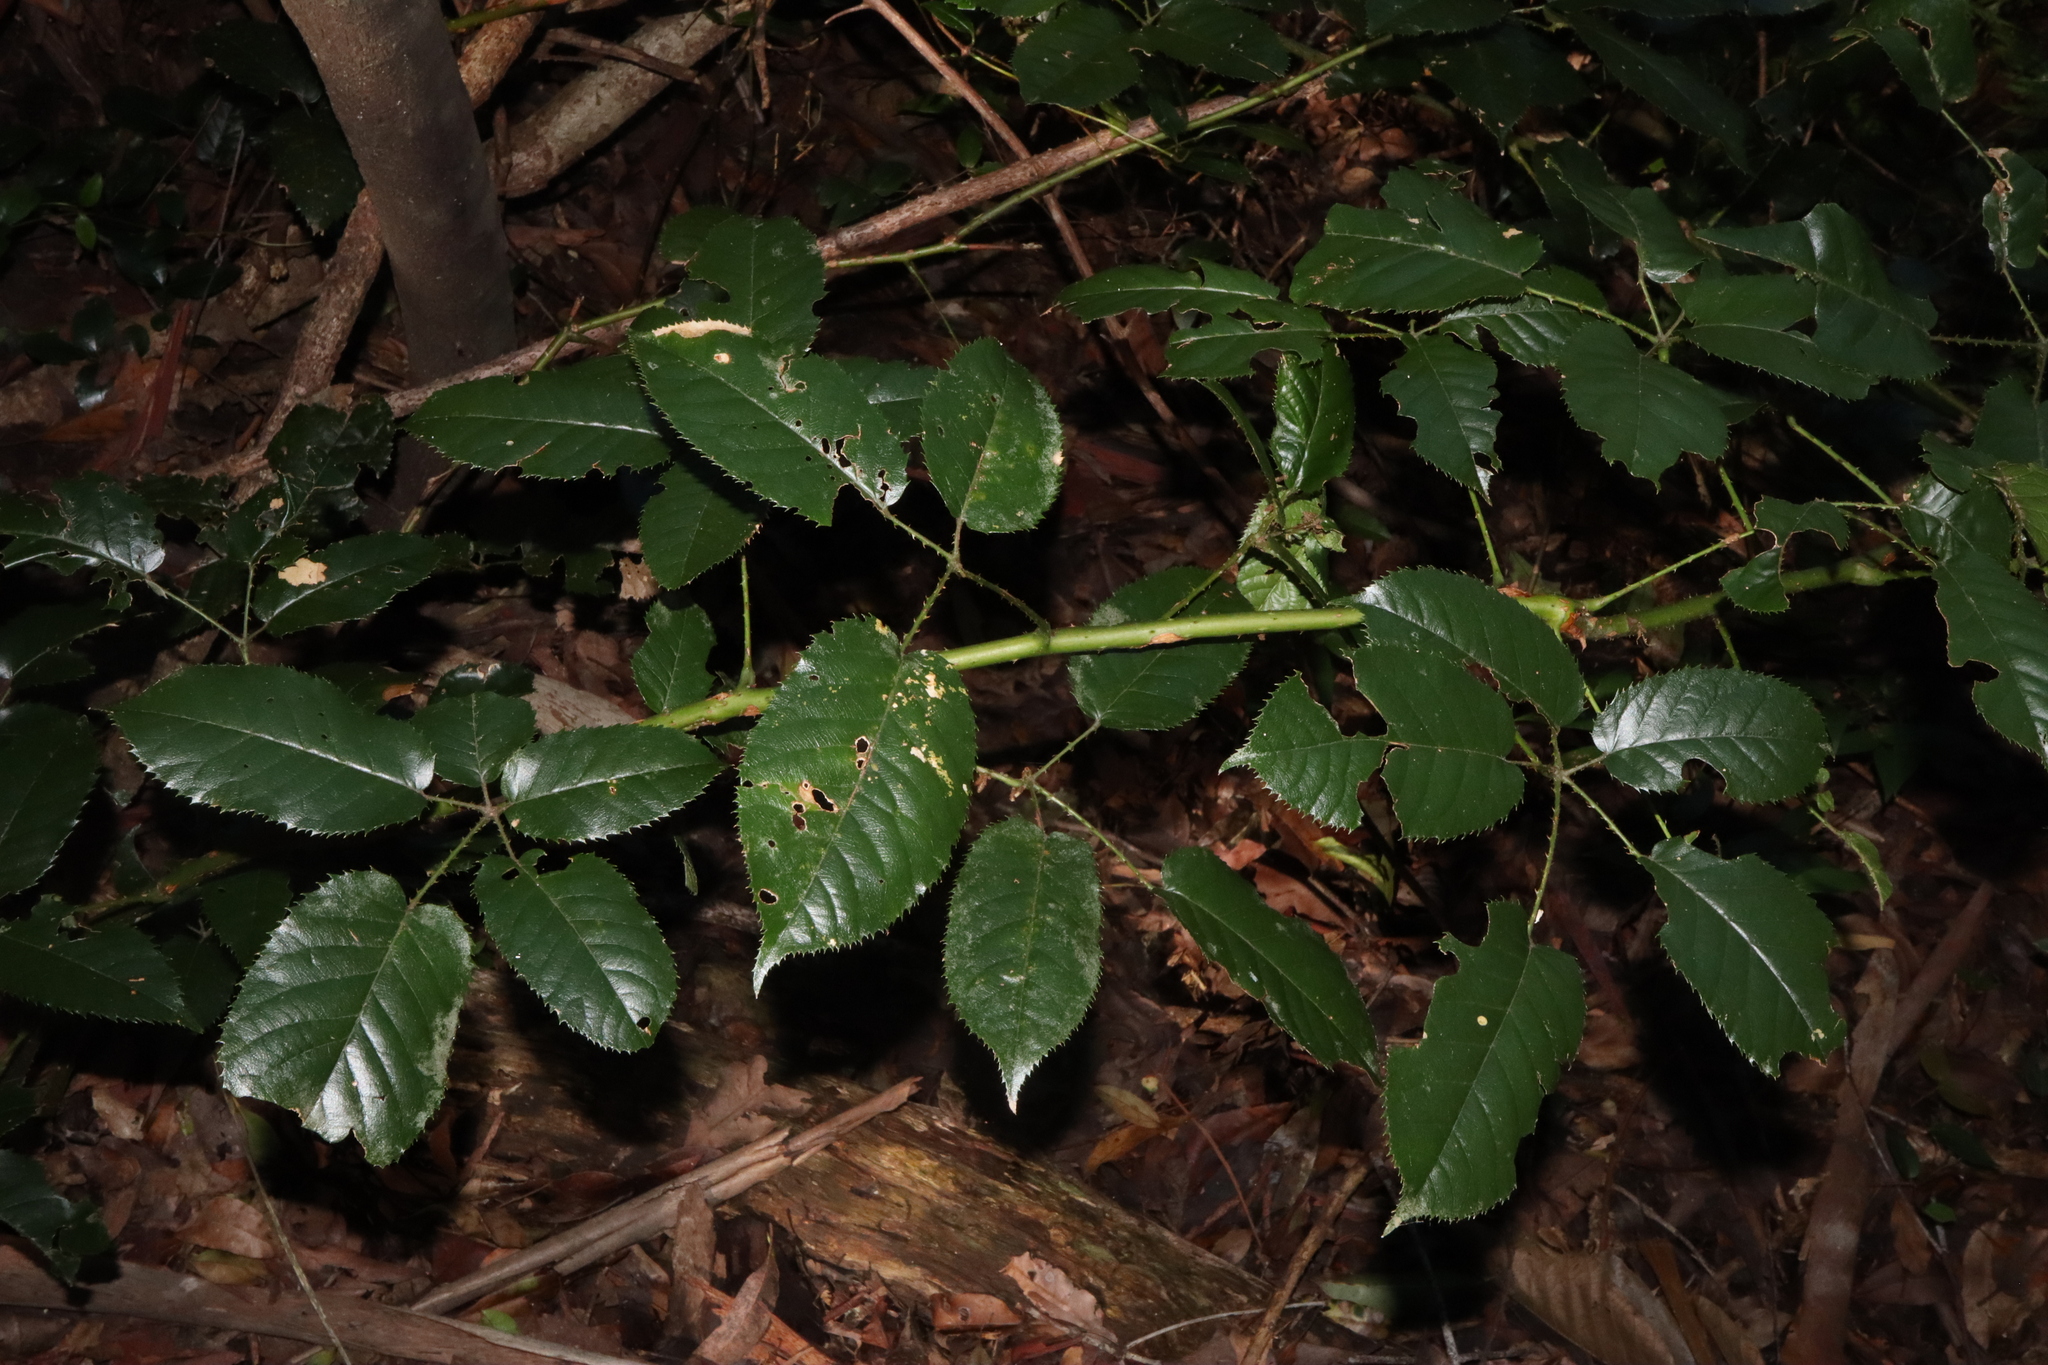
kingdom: Plantae
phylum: Tracheophyta
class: Magnoliopsida
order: Rosales
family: Rosaceae
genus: Rubus
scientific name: Rubus nebulosus
